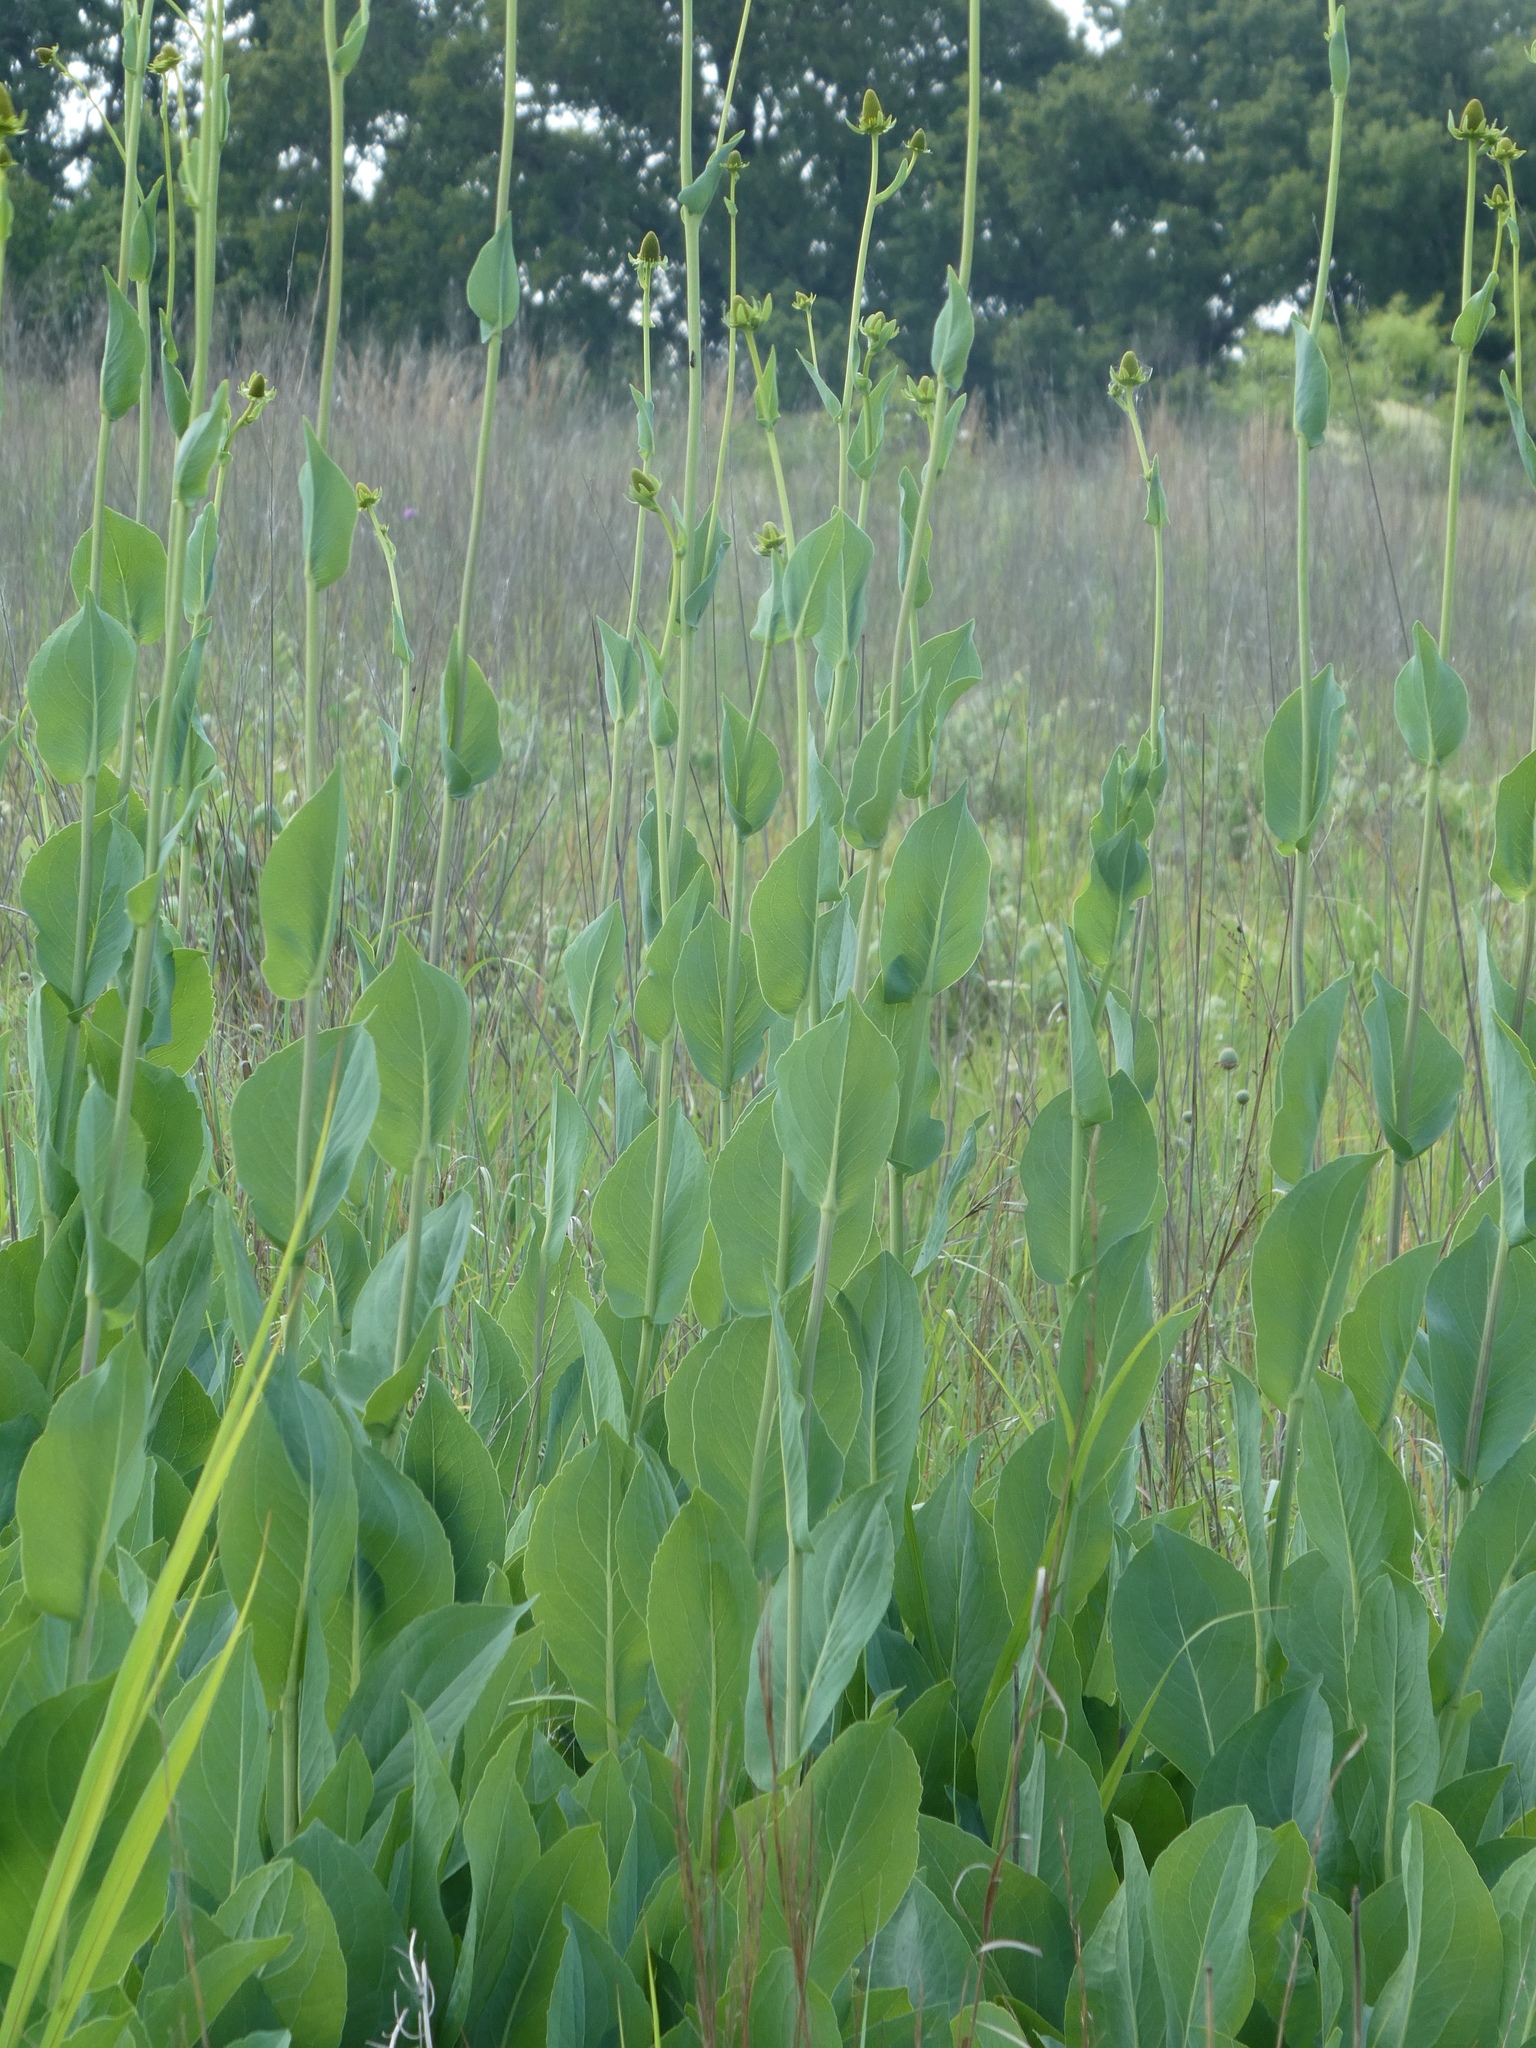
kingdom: Plantae
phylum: Tracheophyta
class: Magnoliopsida
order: Asterales
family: Asteraceae
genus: Rudbeckia
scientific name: Rudbeckia maxima
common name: Cabbage coneflower
